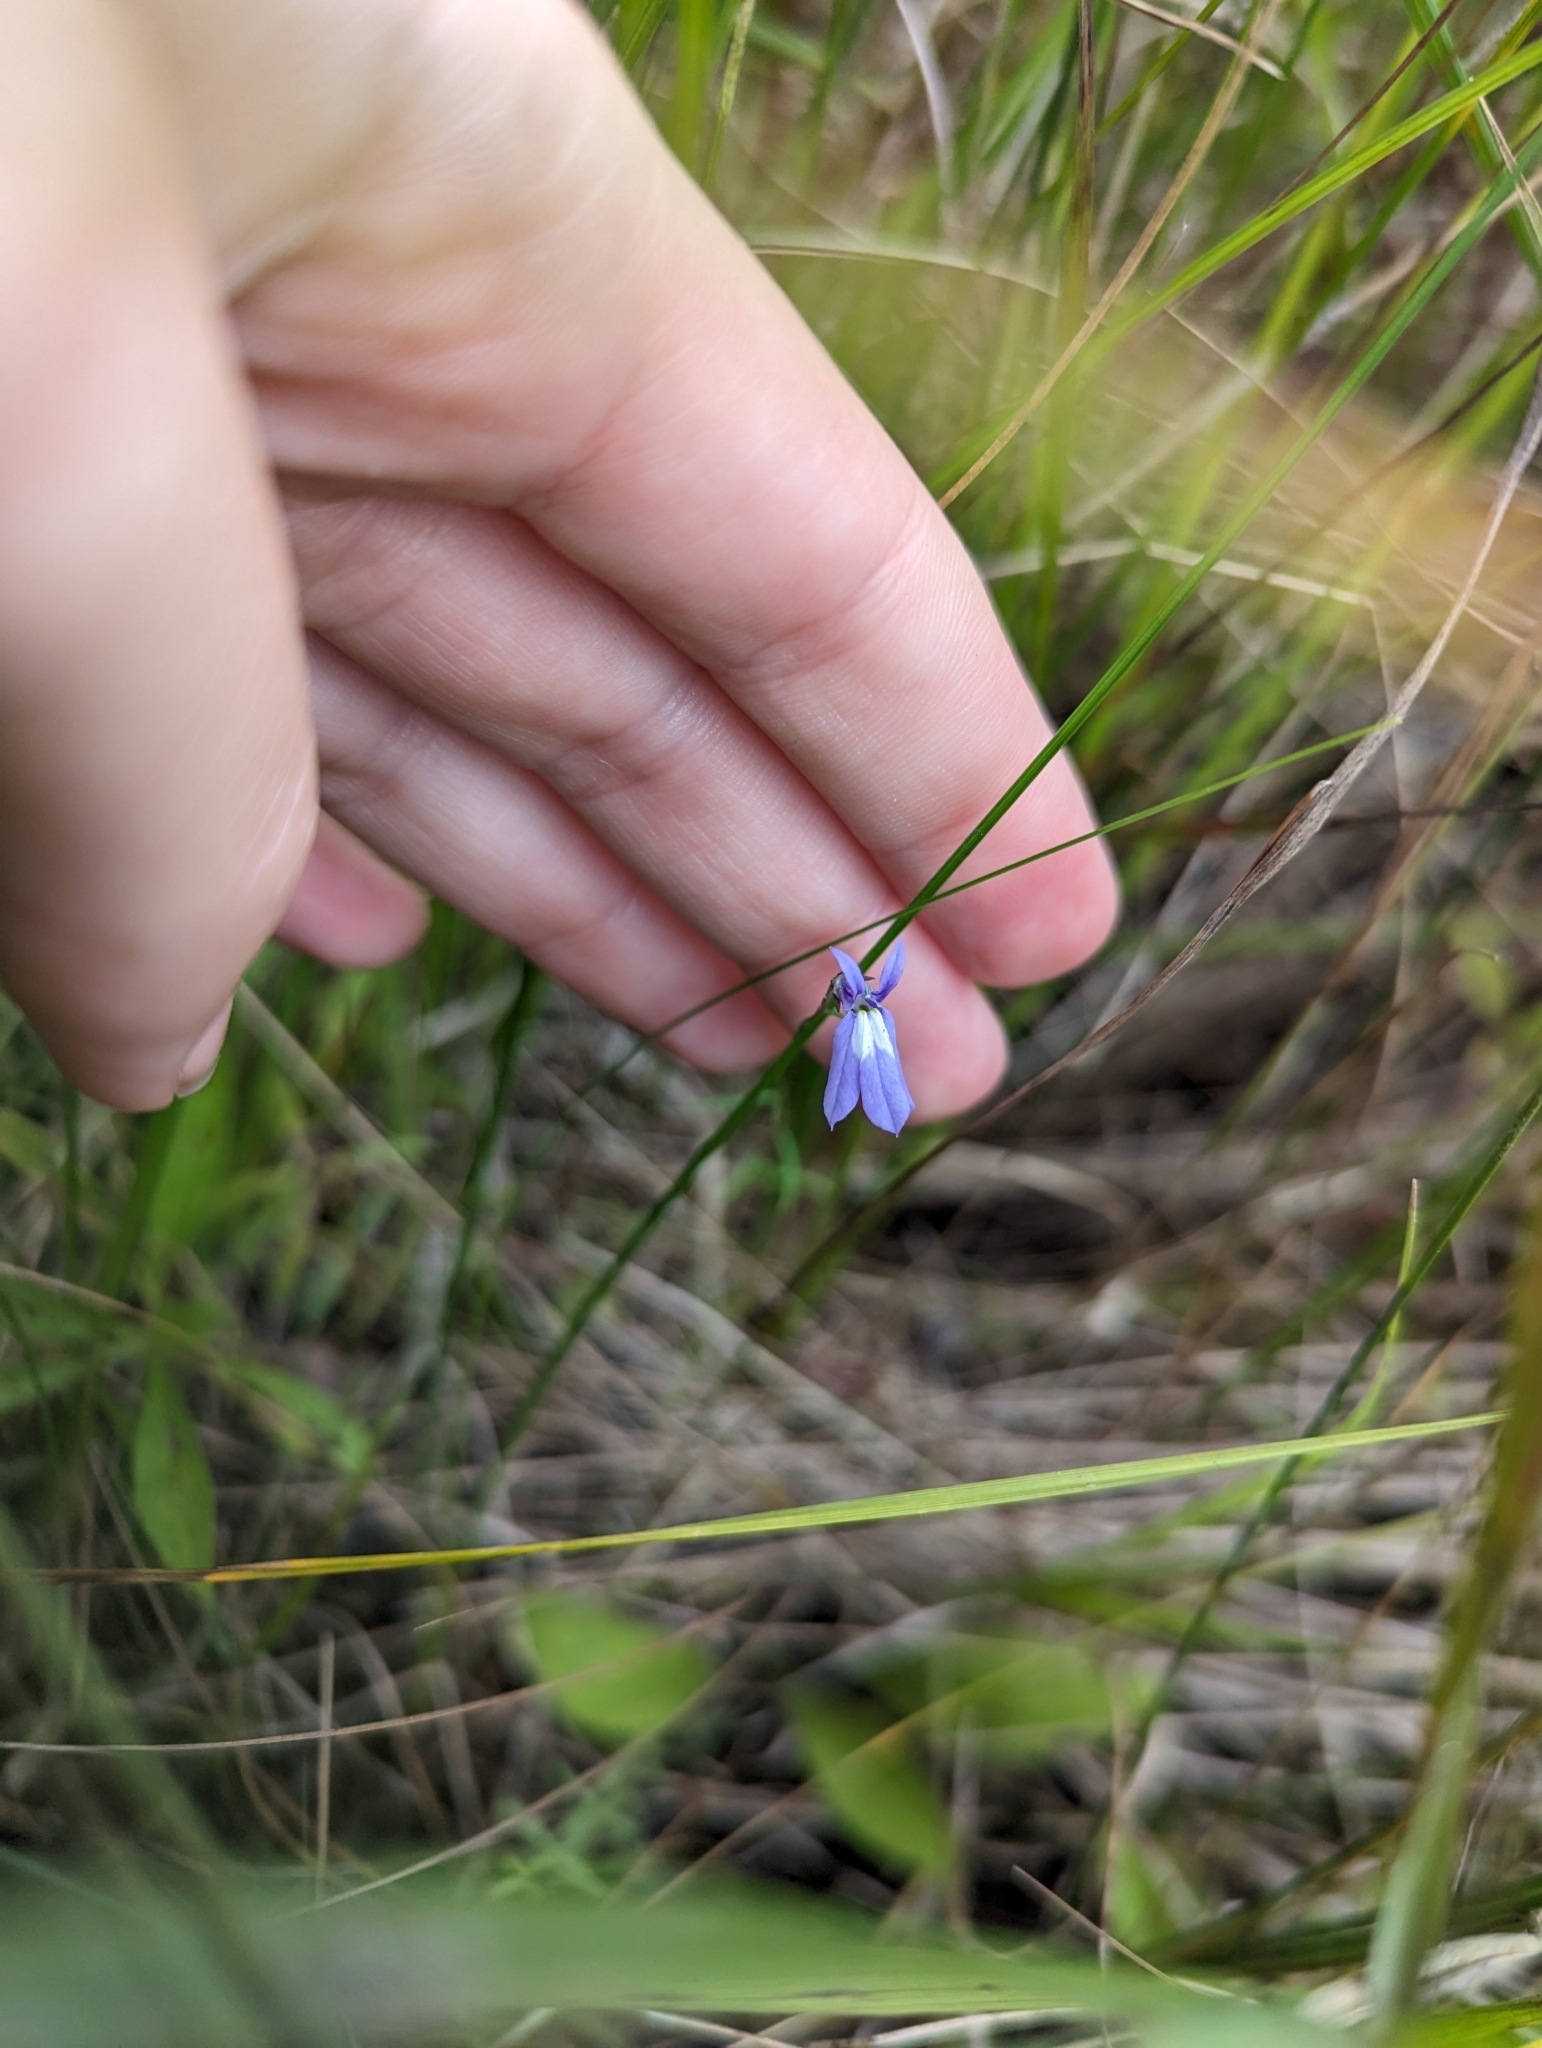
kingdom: Plantae
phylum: Tracheophyta
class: Magnoliopsida
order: Asterales
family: Campanulaceae
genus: Lobelia
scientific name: Lobelia kalmii
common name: Kalm's lobelia
